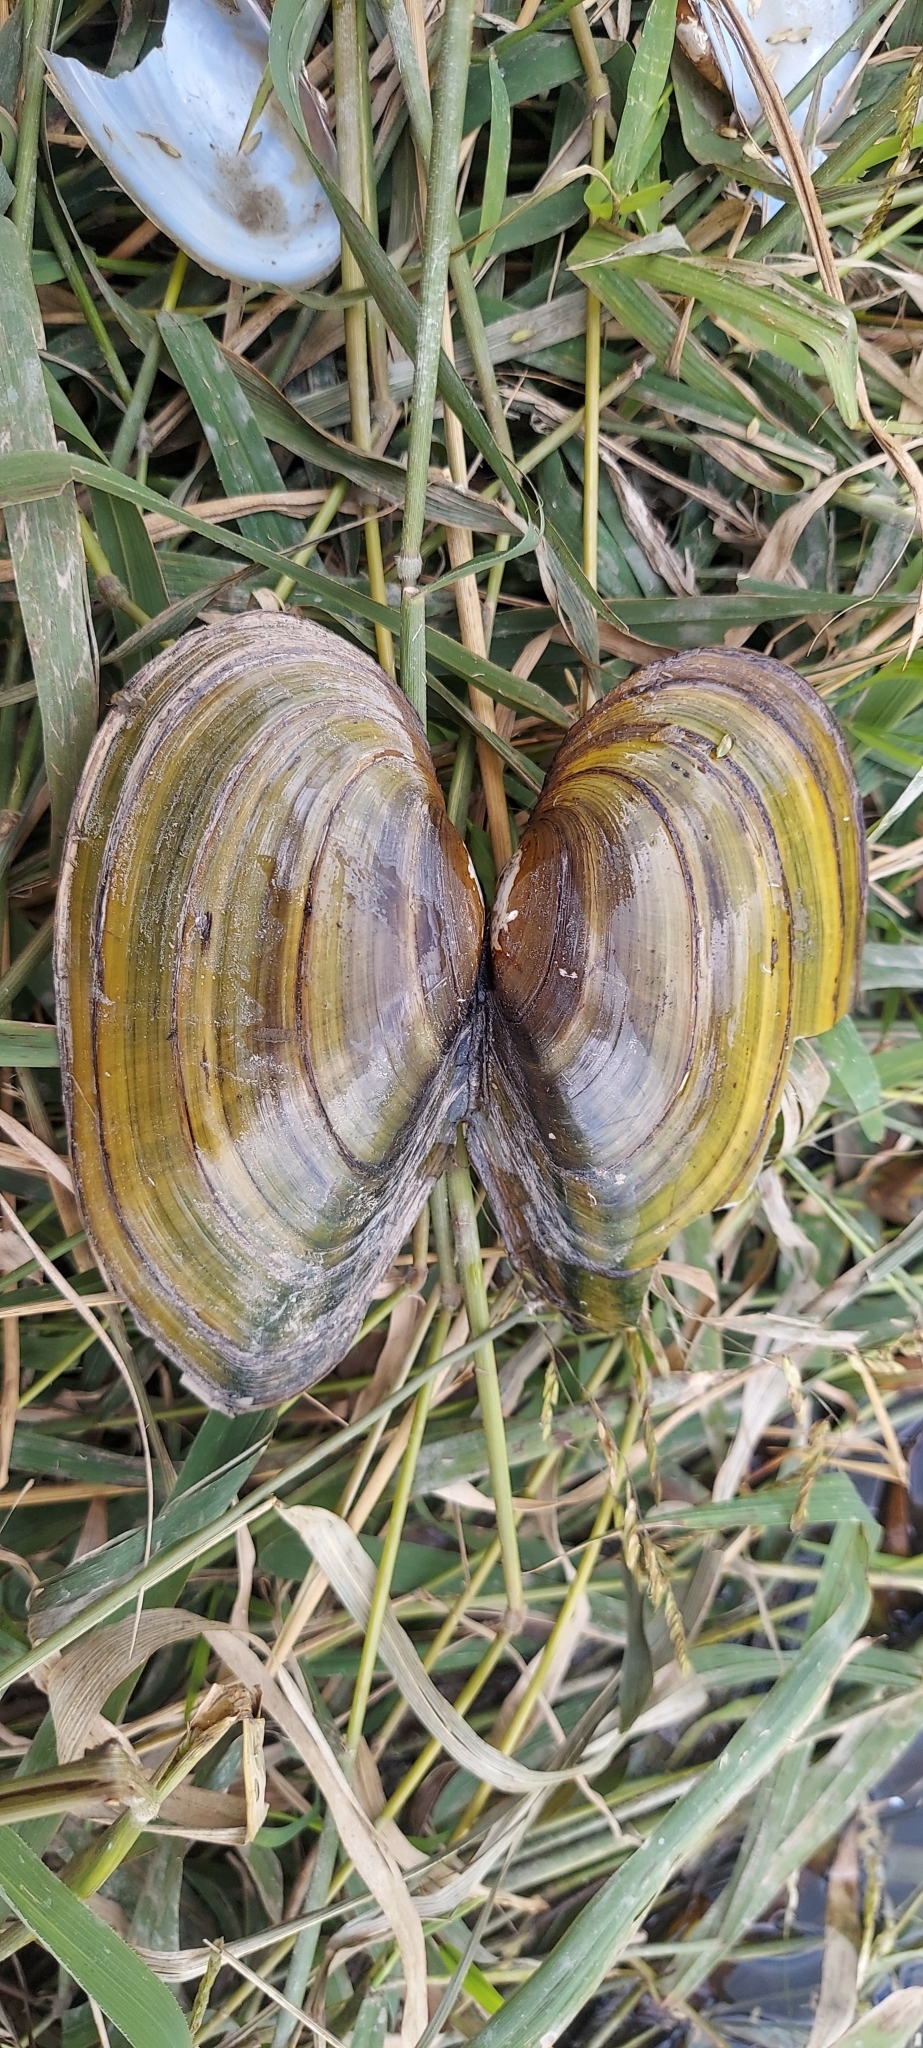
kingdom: Animalia
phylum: Mollusca
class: Bivalvia
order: Unionida
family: Unionidae
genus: Pyganodon
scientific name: Pyganodon grandis
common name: Giant floater
